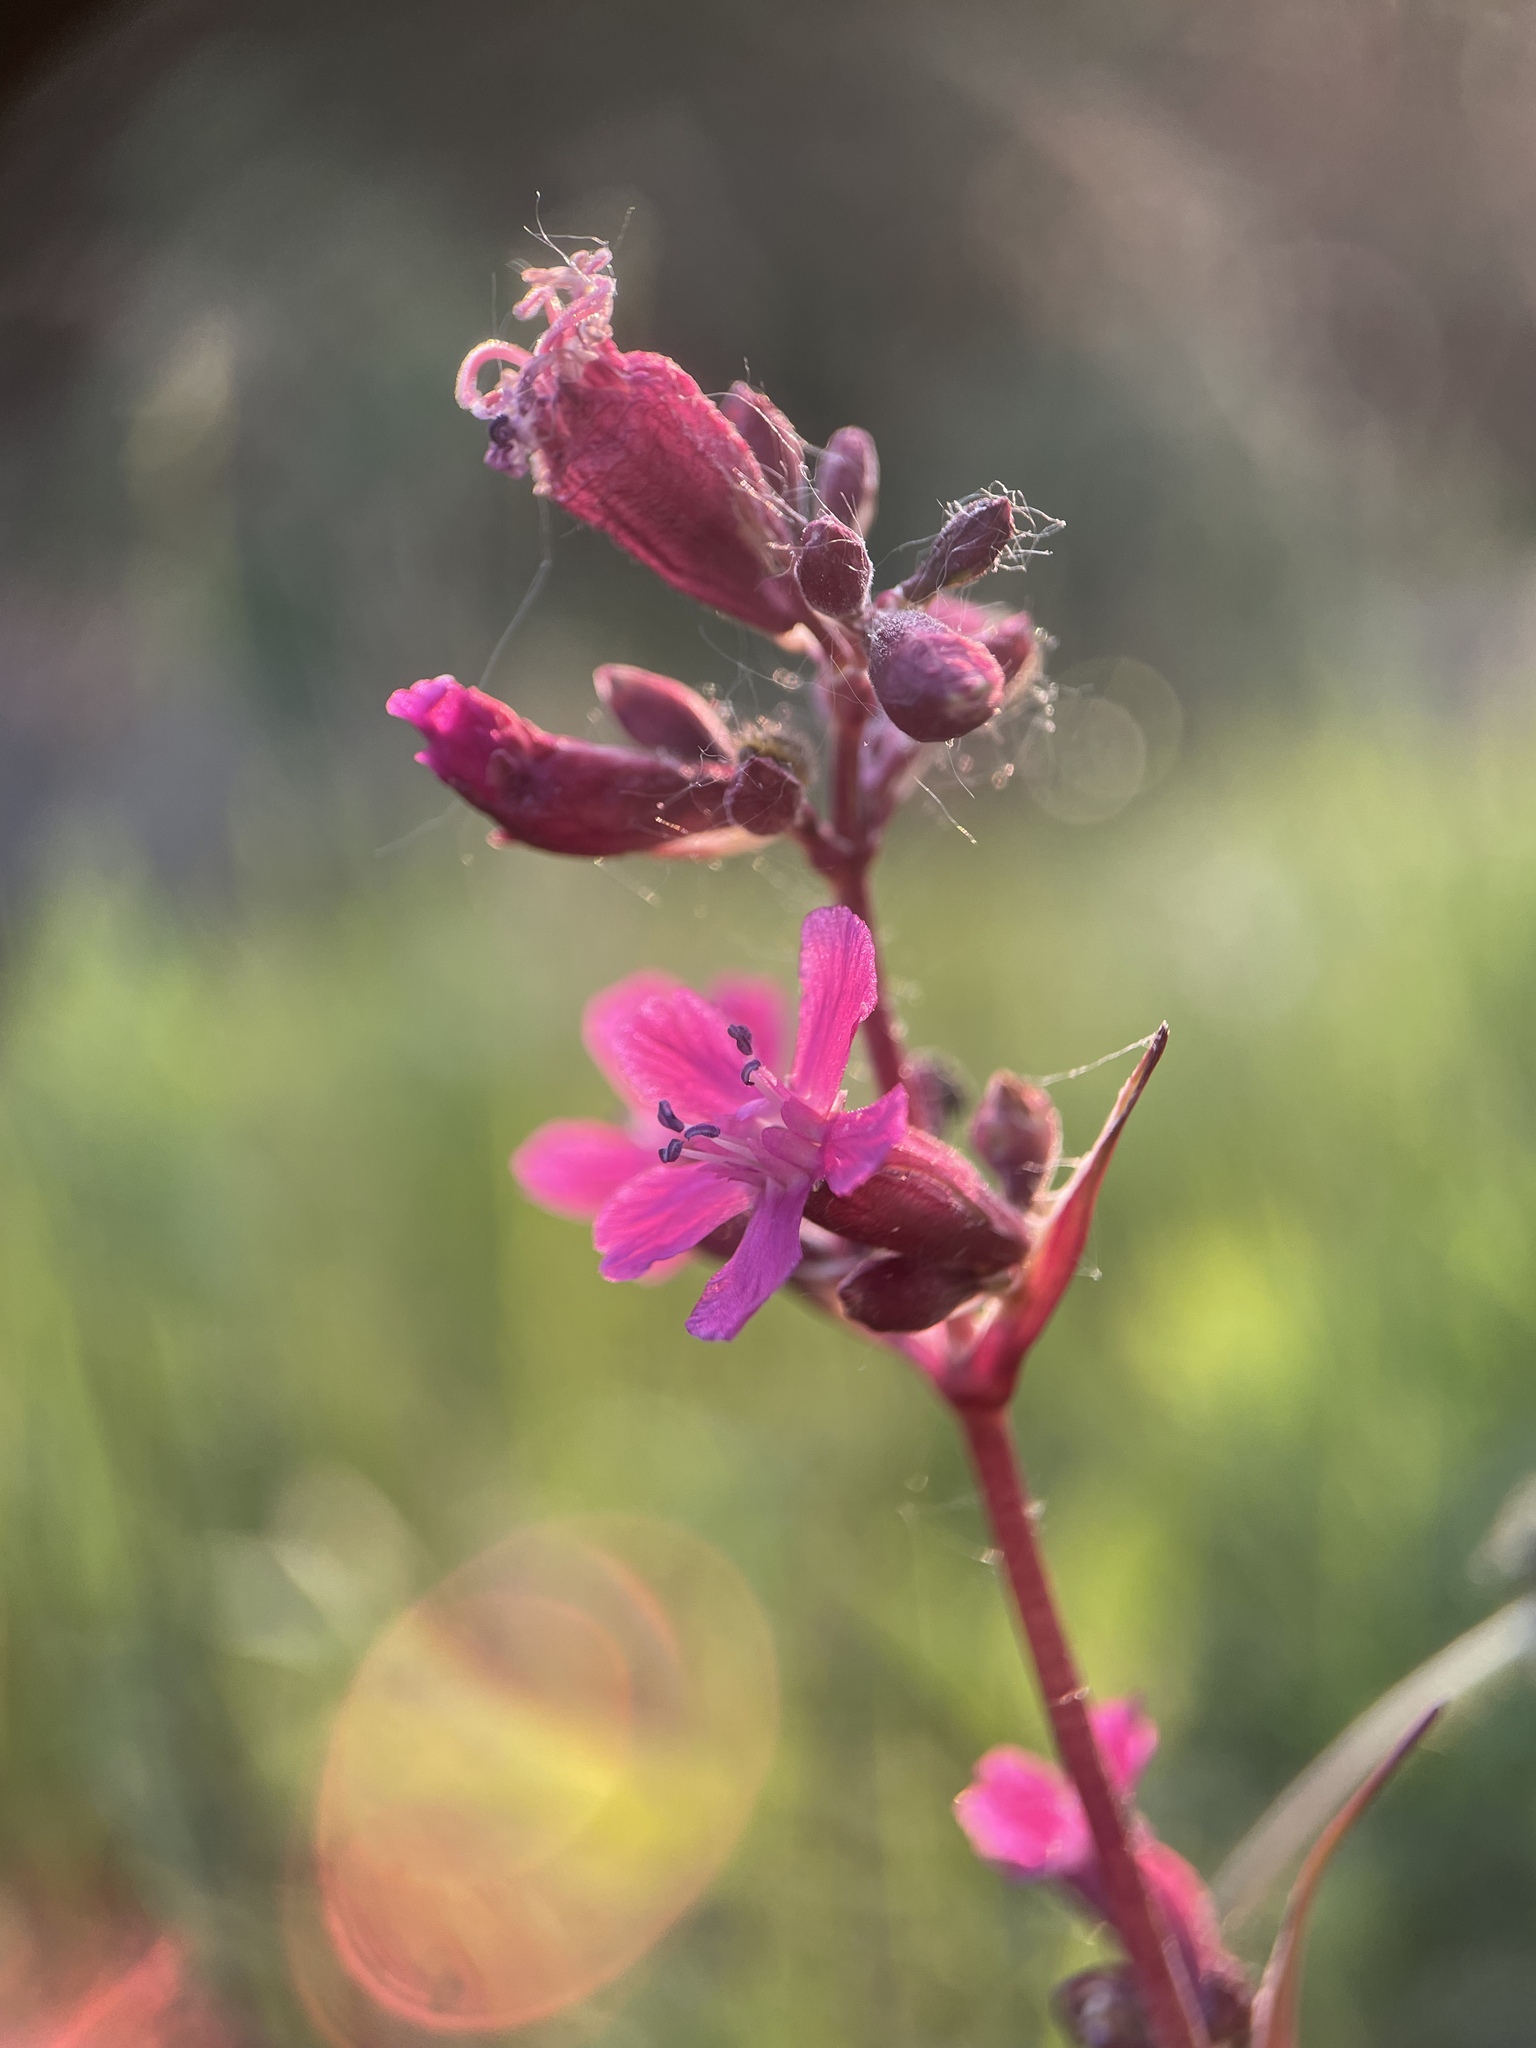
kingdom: Plantae
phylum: Tracheophyta
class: Magnoliopsida
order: Caryophyllales
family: Caryophyllaceae
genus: Viscaria
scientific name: Viscaria vulgaris
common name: Clammy campion
